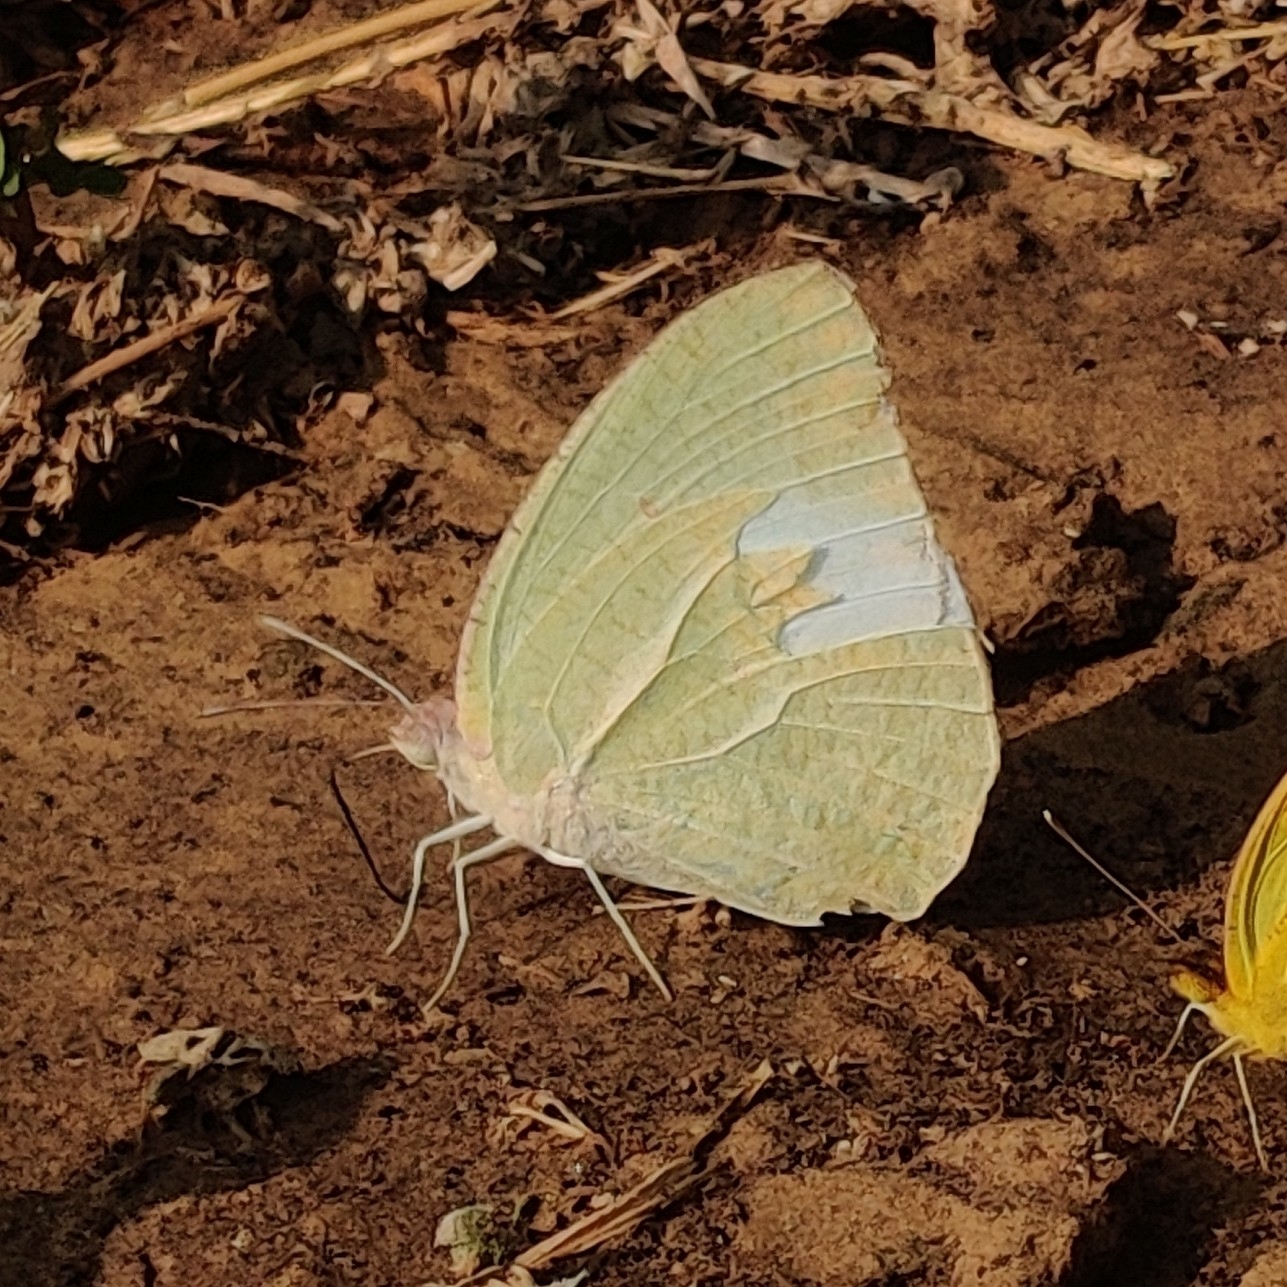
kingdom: Animalia
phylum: Arthropoda
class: Insecta
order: Lepidoptera
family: Pieridae
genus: Catopsilia
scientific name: Catopsilia pyranthe
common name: Mottled emigrant
